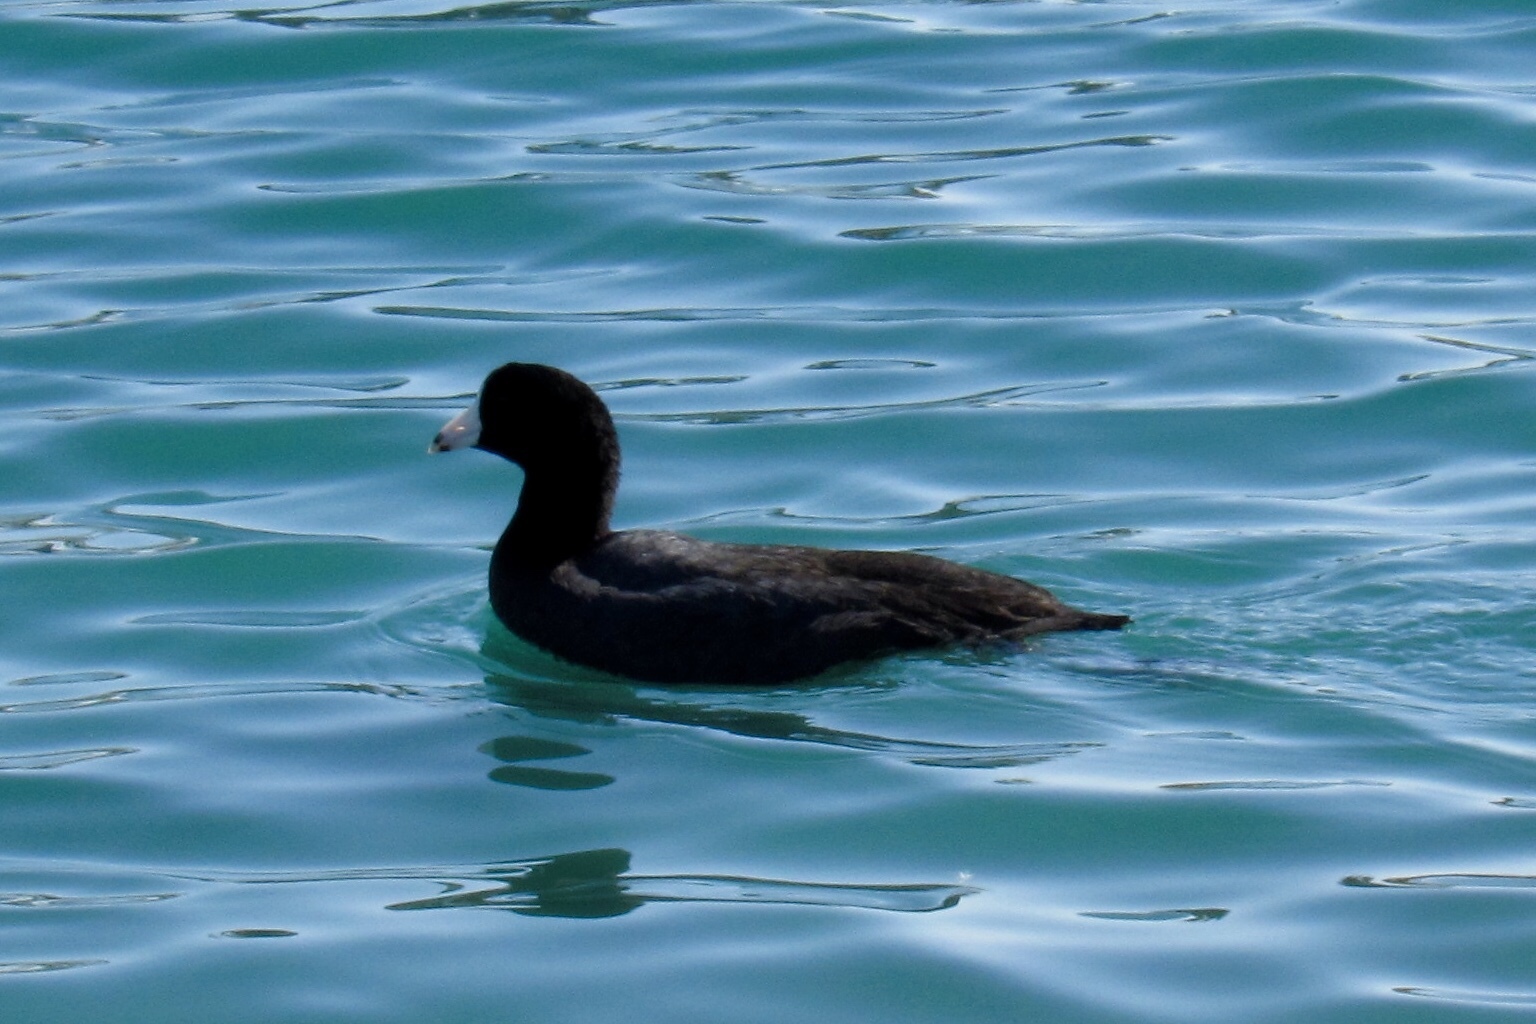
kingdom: Animalia
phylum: Chordata
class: Aves
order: Gruiformes
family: Rallidae
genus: Fulica
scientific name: Fulica americana
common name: American coot
